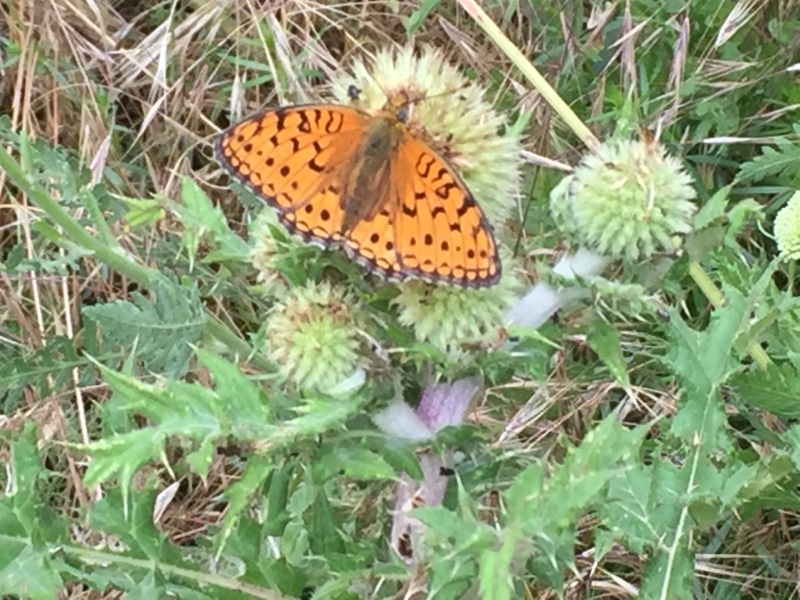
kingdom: Animalia
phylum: Arthropoda
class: Insecta
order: Lepidoptera
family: Nymphalidae
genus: Speyeria
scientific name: Speyeria aglaja
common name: Dark green fritillary
